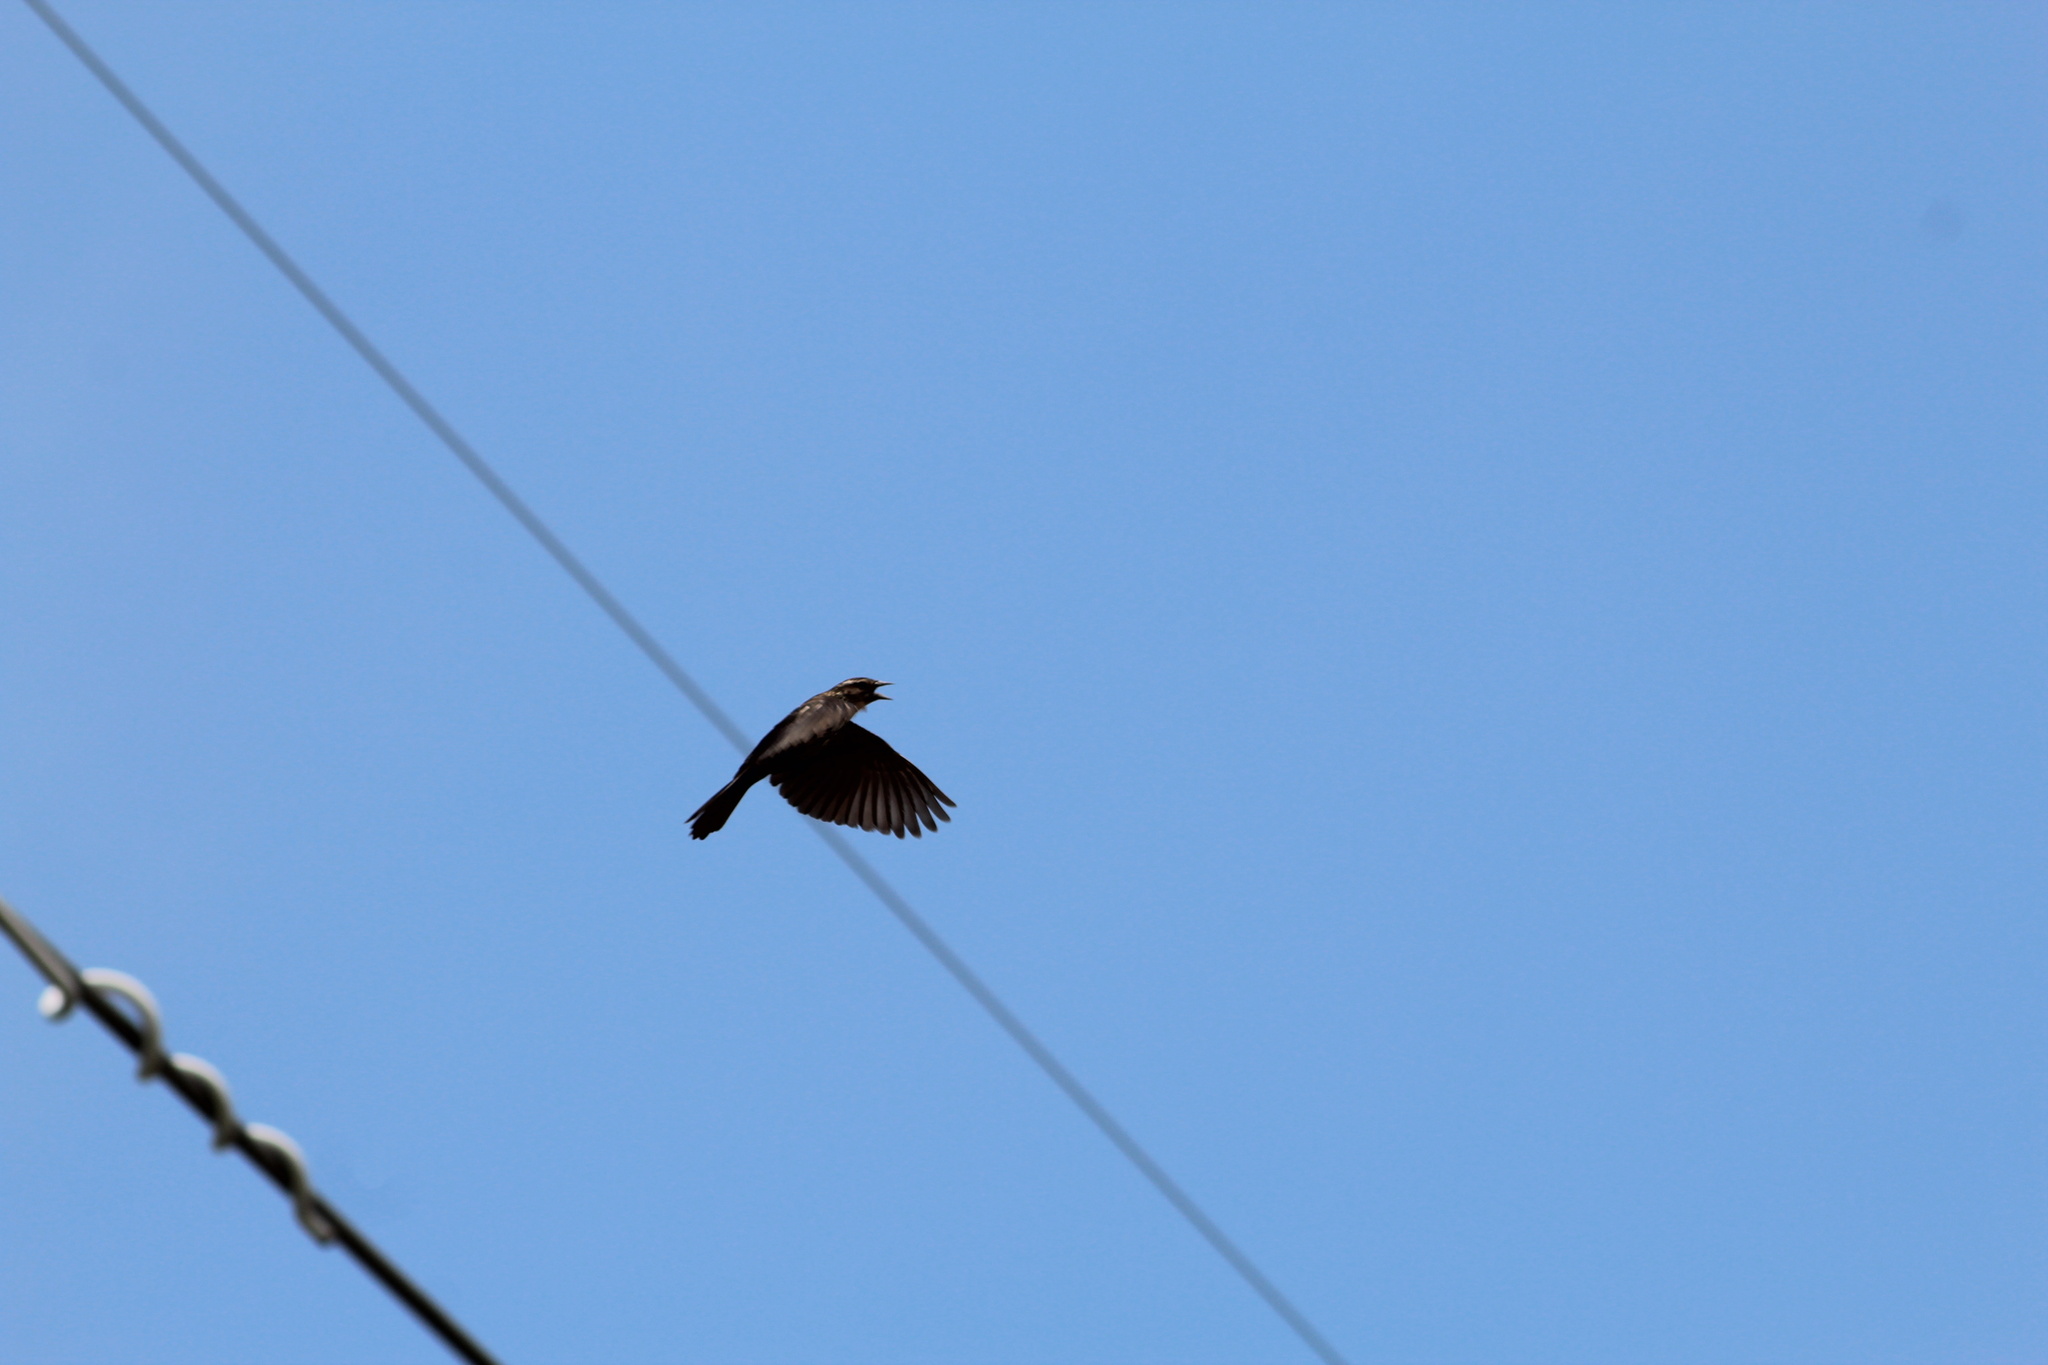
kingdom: Animalia
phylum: Chordata
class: Aves
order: Passeriformes
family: Icteridae
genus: Agelaius
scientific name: Agelaius phoeniceus
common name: Red-winged blackbird
